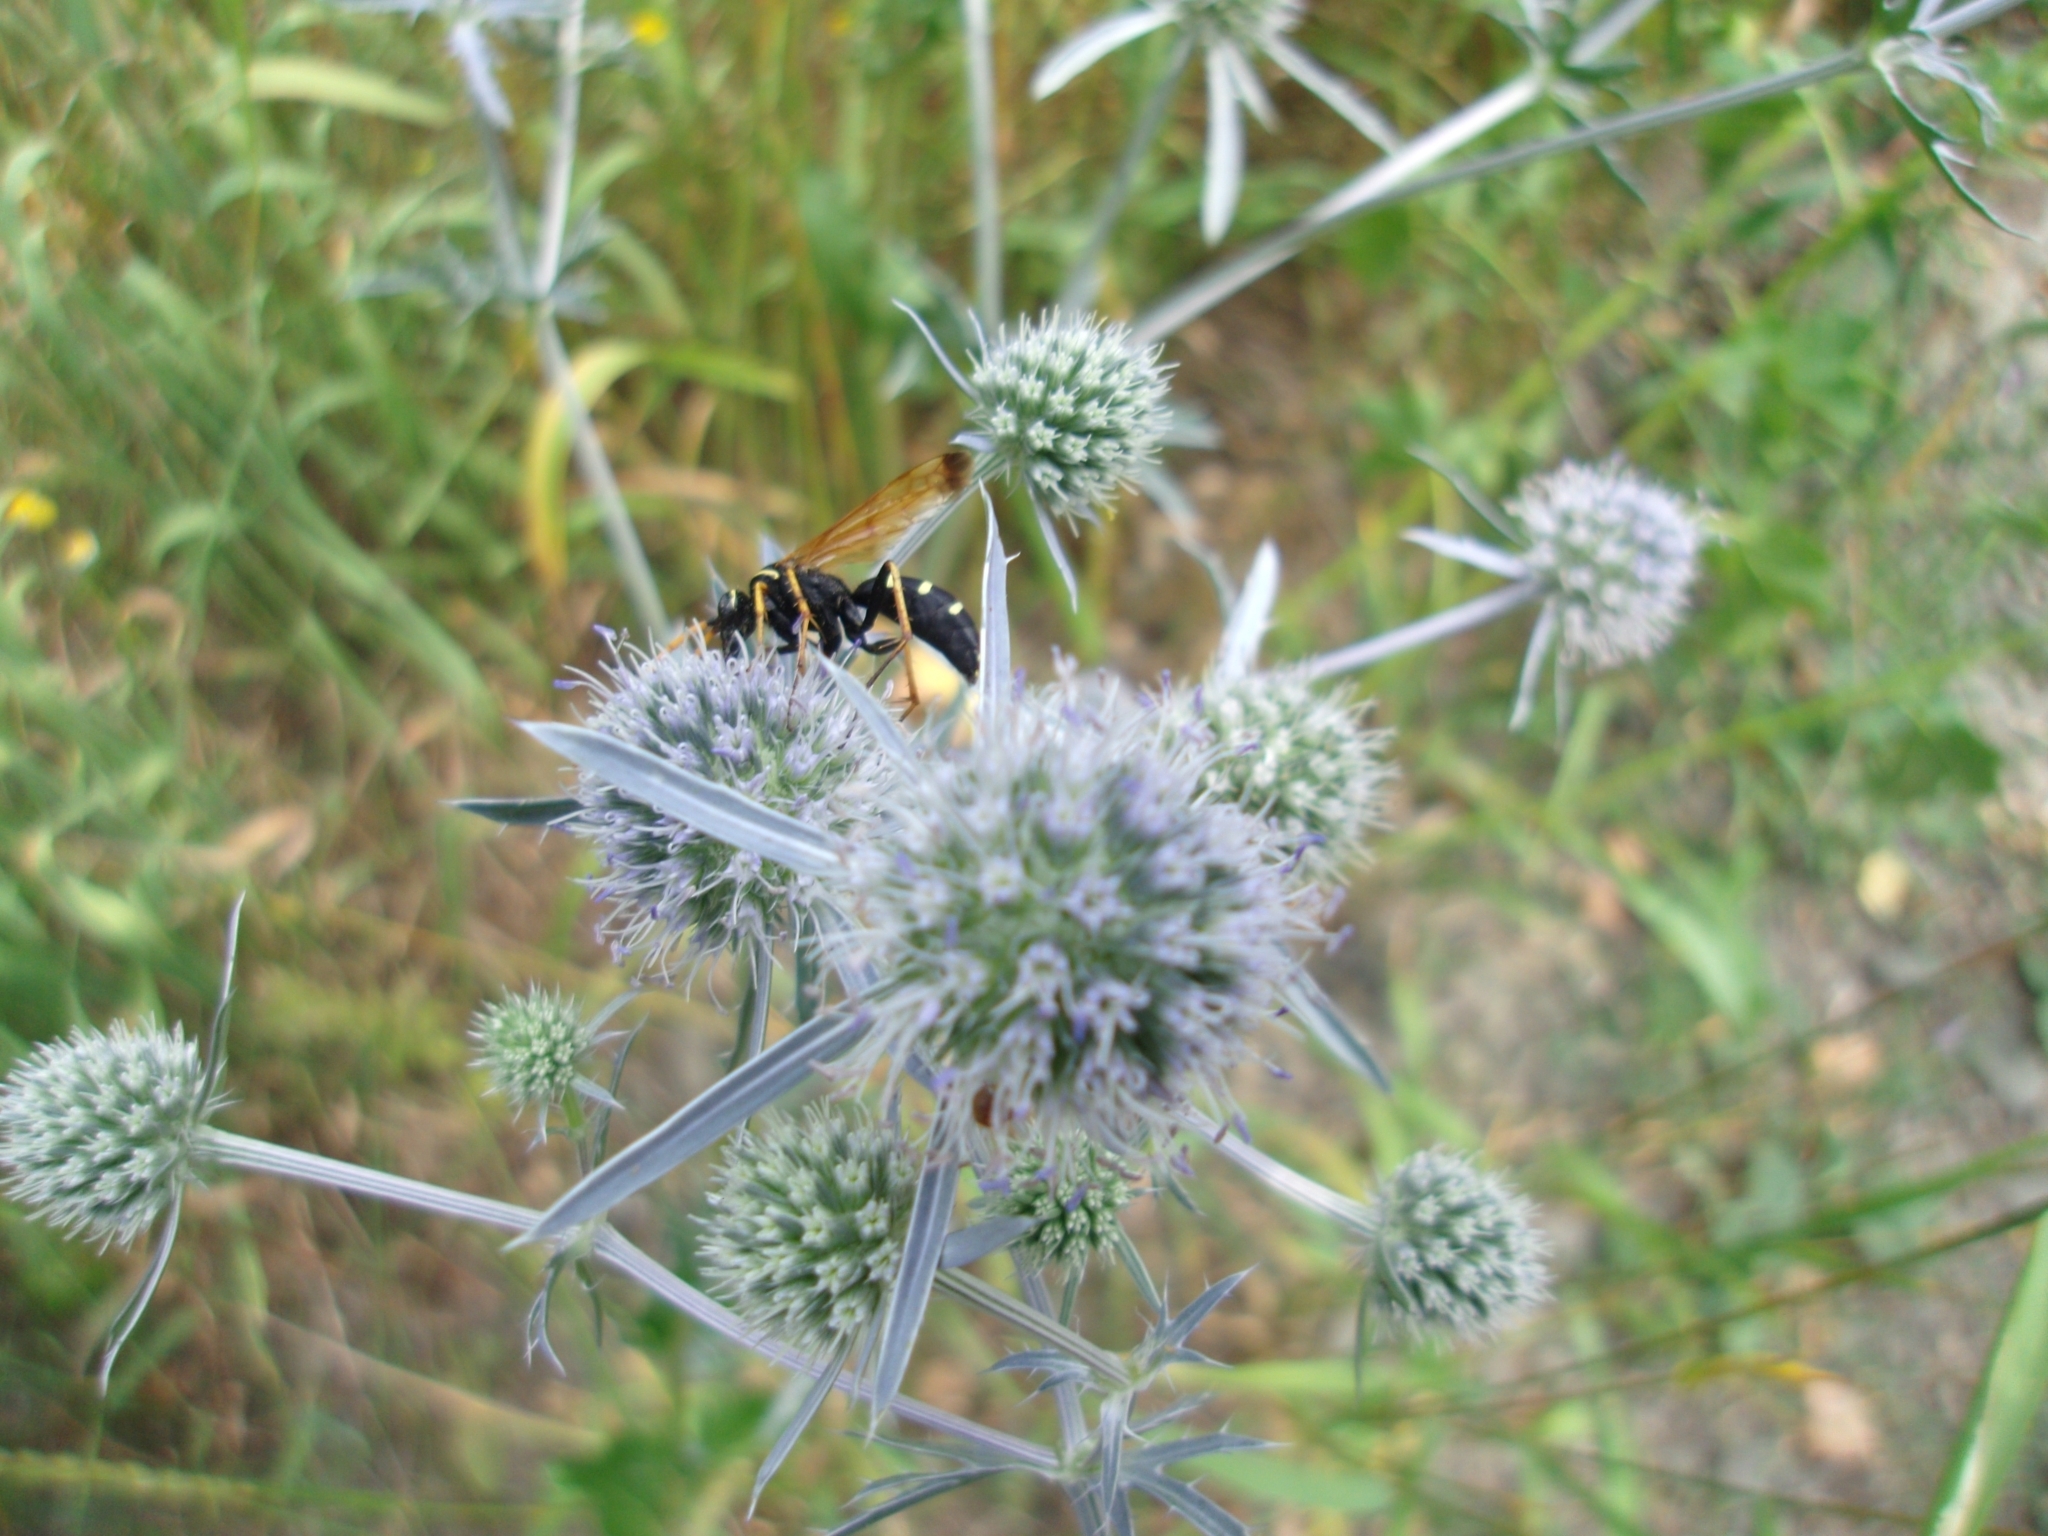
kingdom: Animalia
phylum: Arthropoda
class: Insecta
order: Hymenoptera
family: Pompilidae
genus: Parabatozonus
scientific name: Parabatozonus lacerticida
